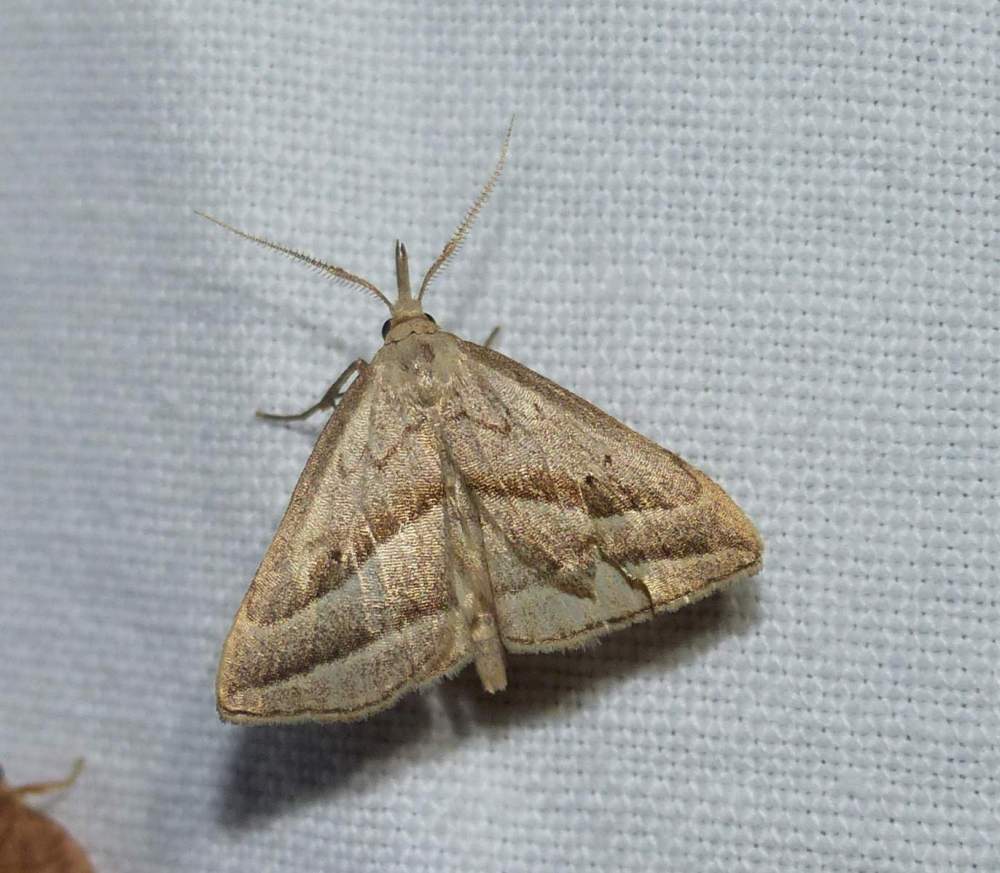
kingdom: Animalia
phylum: Arthropoda
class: Insecta
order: Lepidoptera
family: Erebidae
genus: Macrochilo
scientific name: Macrochilo absorptalis
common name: Slant-lined owlet
